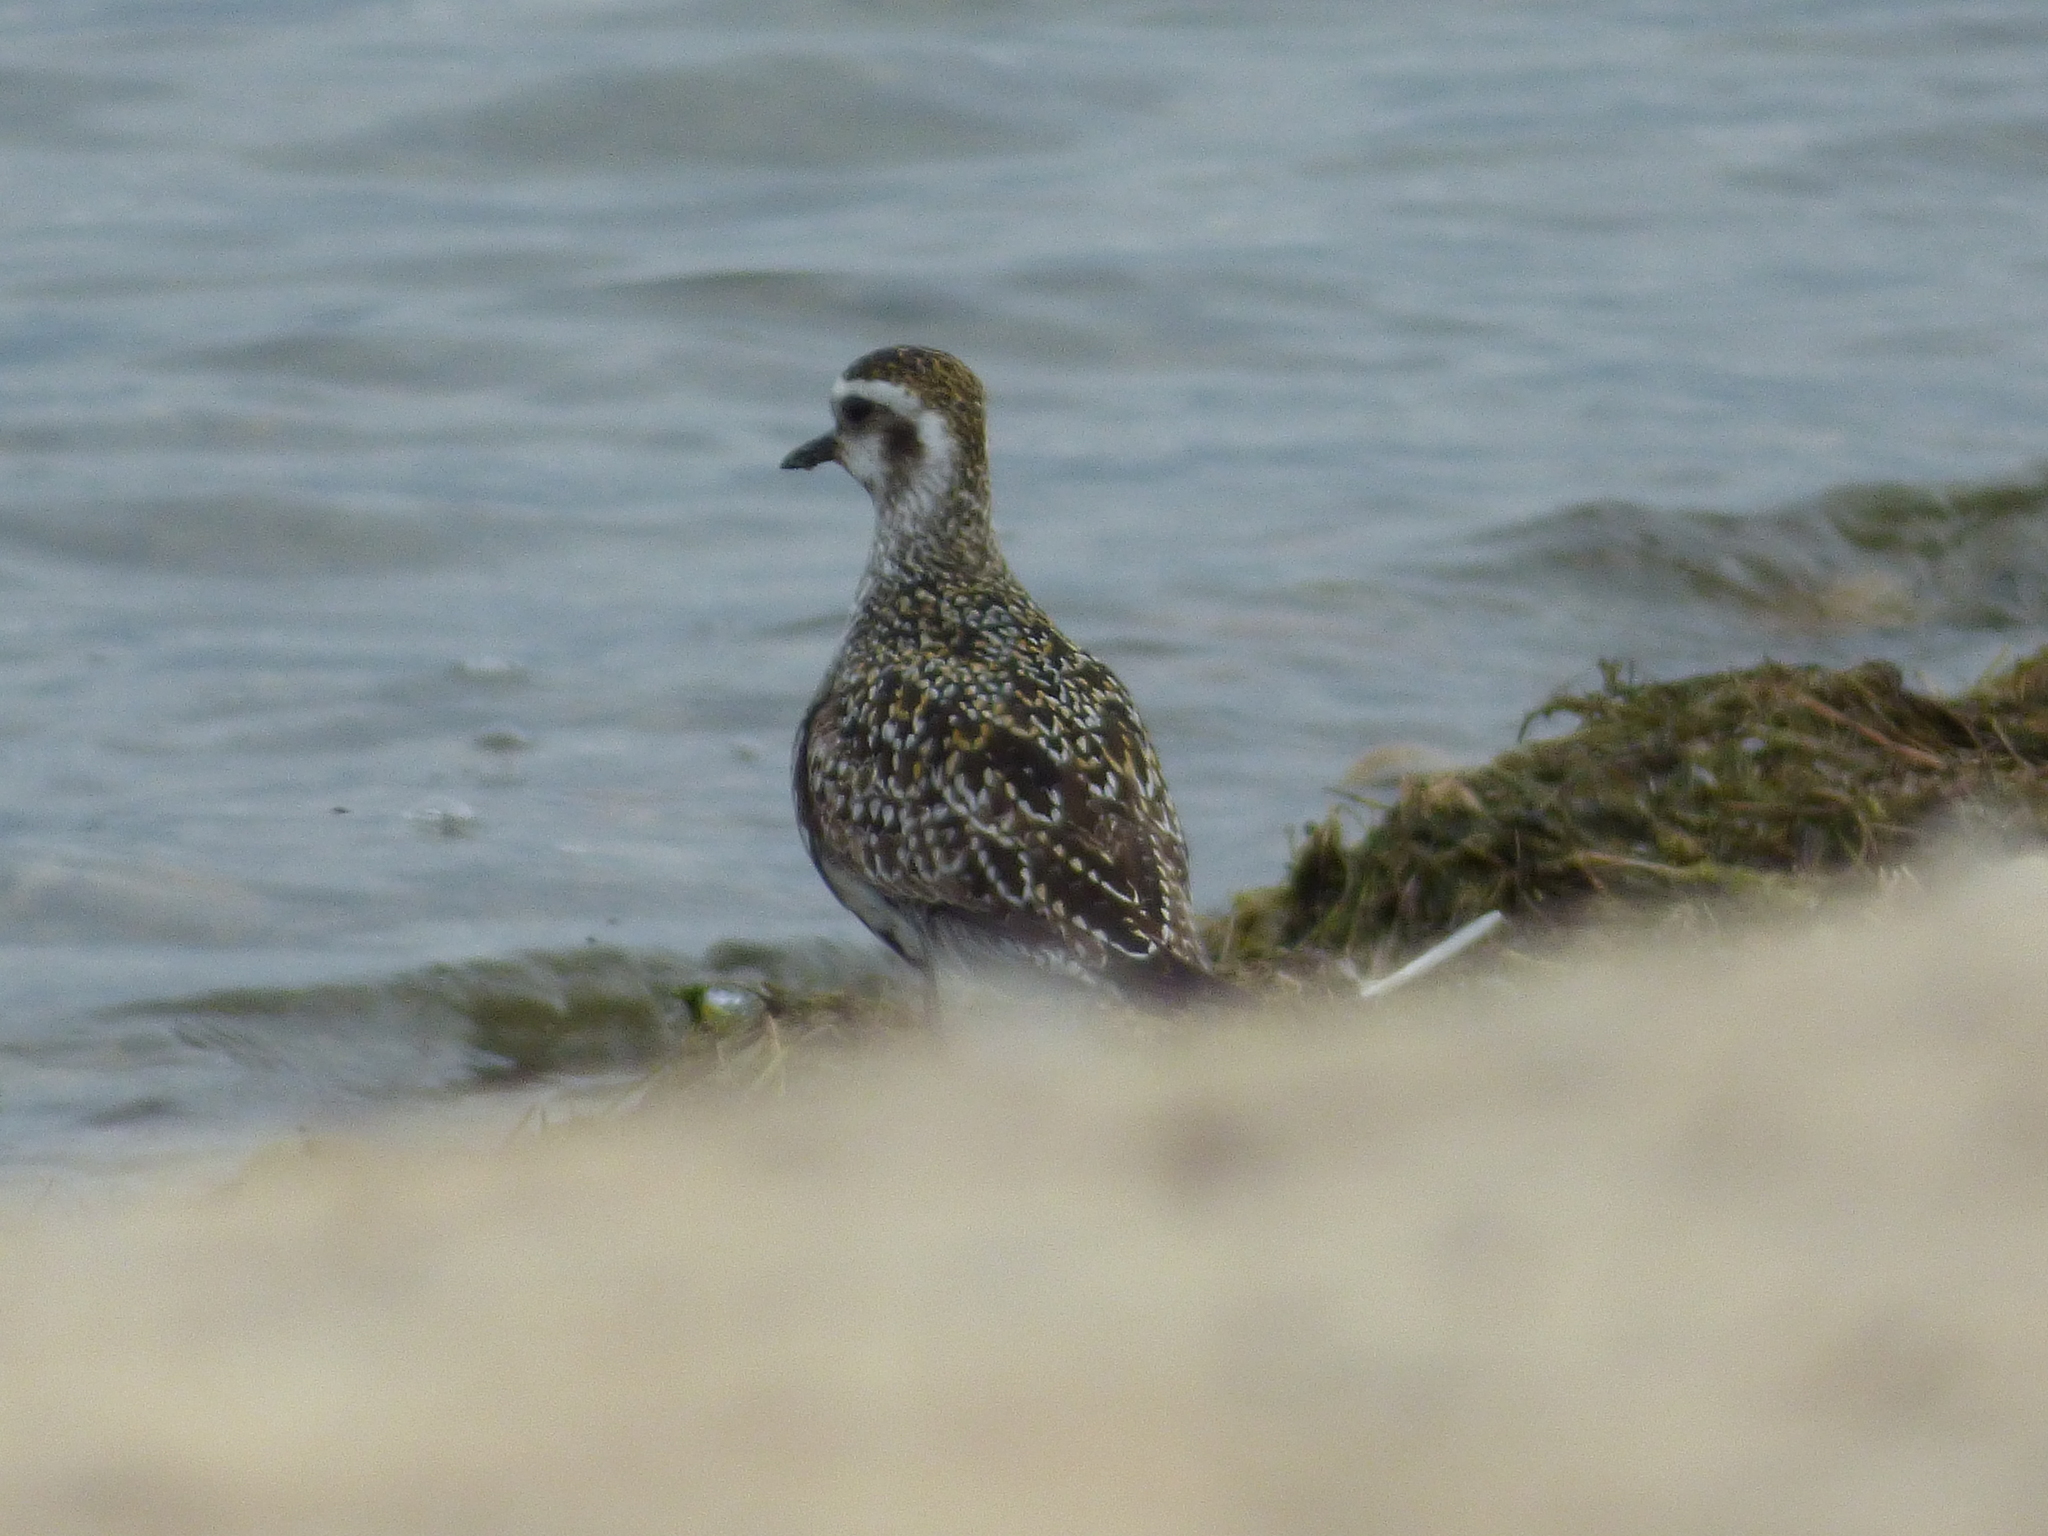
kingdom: Animalia
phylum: Chordata
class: Aves
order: Charadriiformes
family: Charadriidae
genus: Pluvialis
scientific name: Pluvialis dominica
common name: American golden plover
